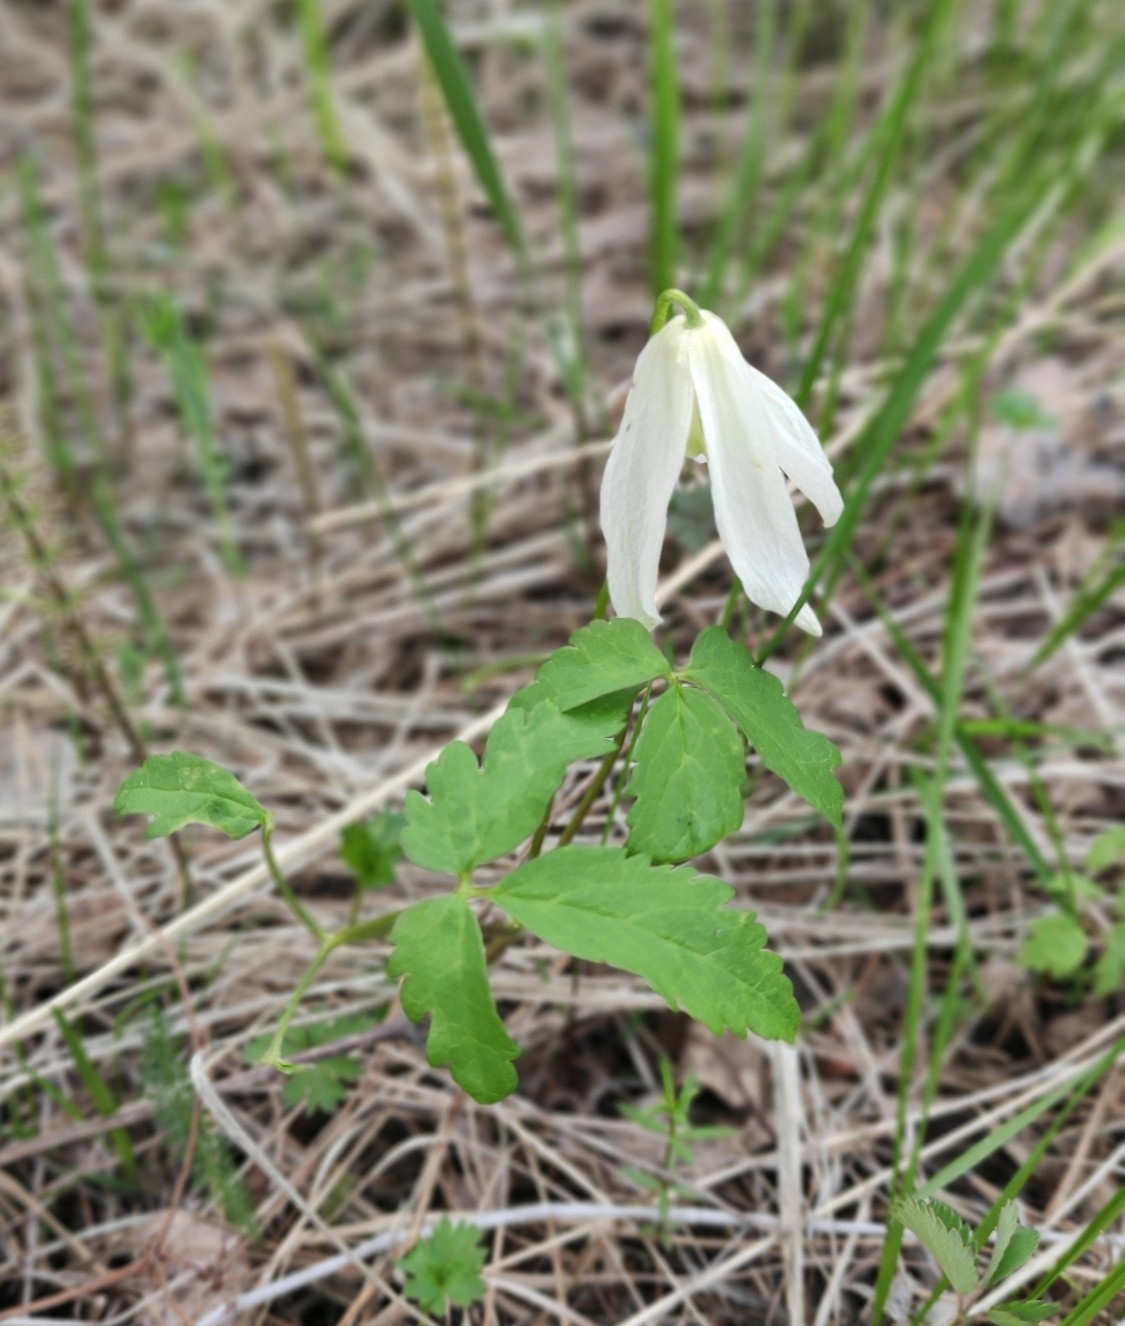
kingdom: Plantae
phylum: Tracheophyta
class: Magnoliopsida
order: Ranunculales
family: Ranunculaceae
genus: Clematis
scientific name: Clematis sibirica
